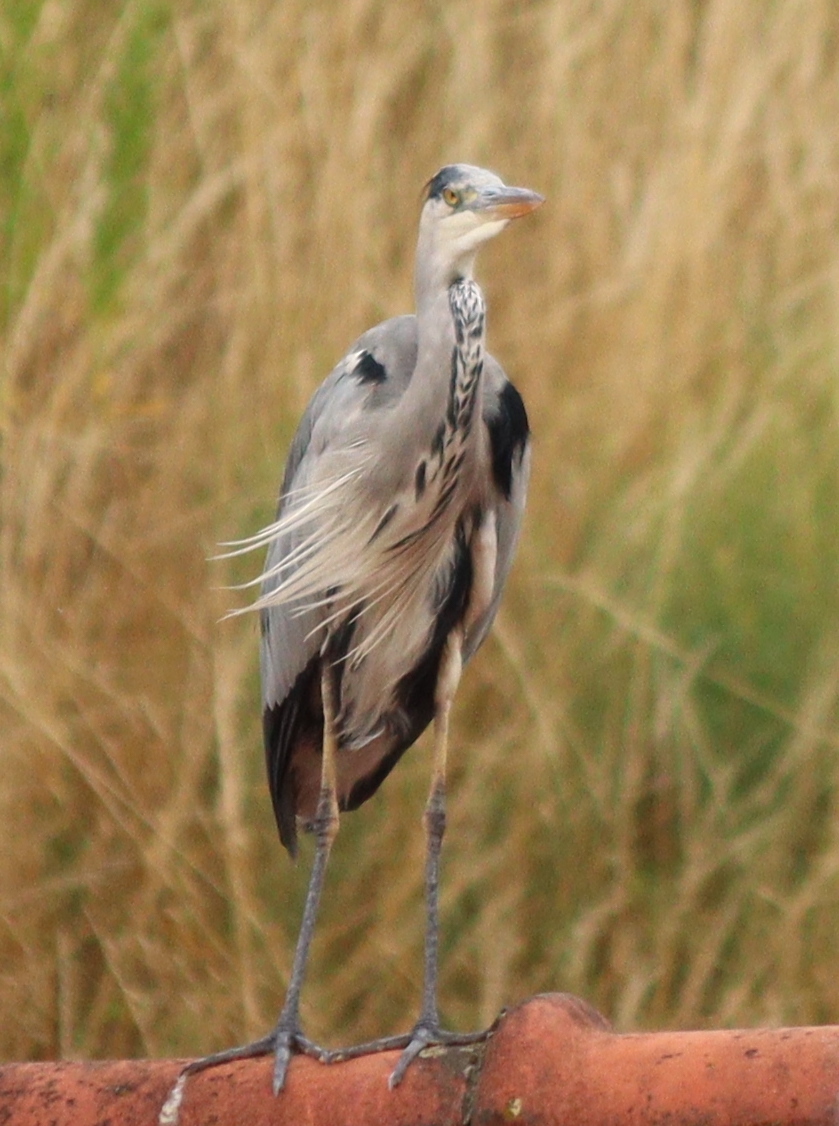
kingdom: Animalia
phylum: Chordata
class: Aves
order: Pelecaniformes
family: Ardeidae
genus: Ardea
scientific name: Ardea cinerea
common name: Grey heron
